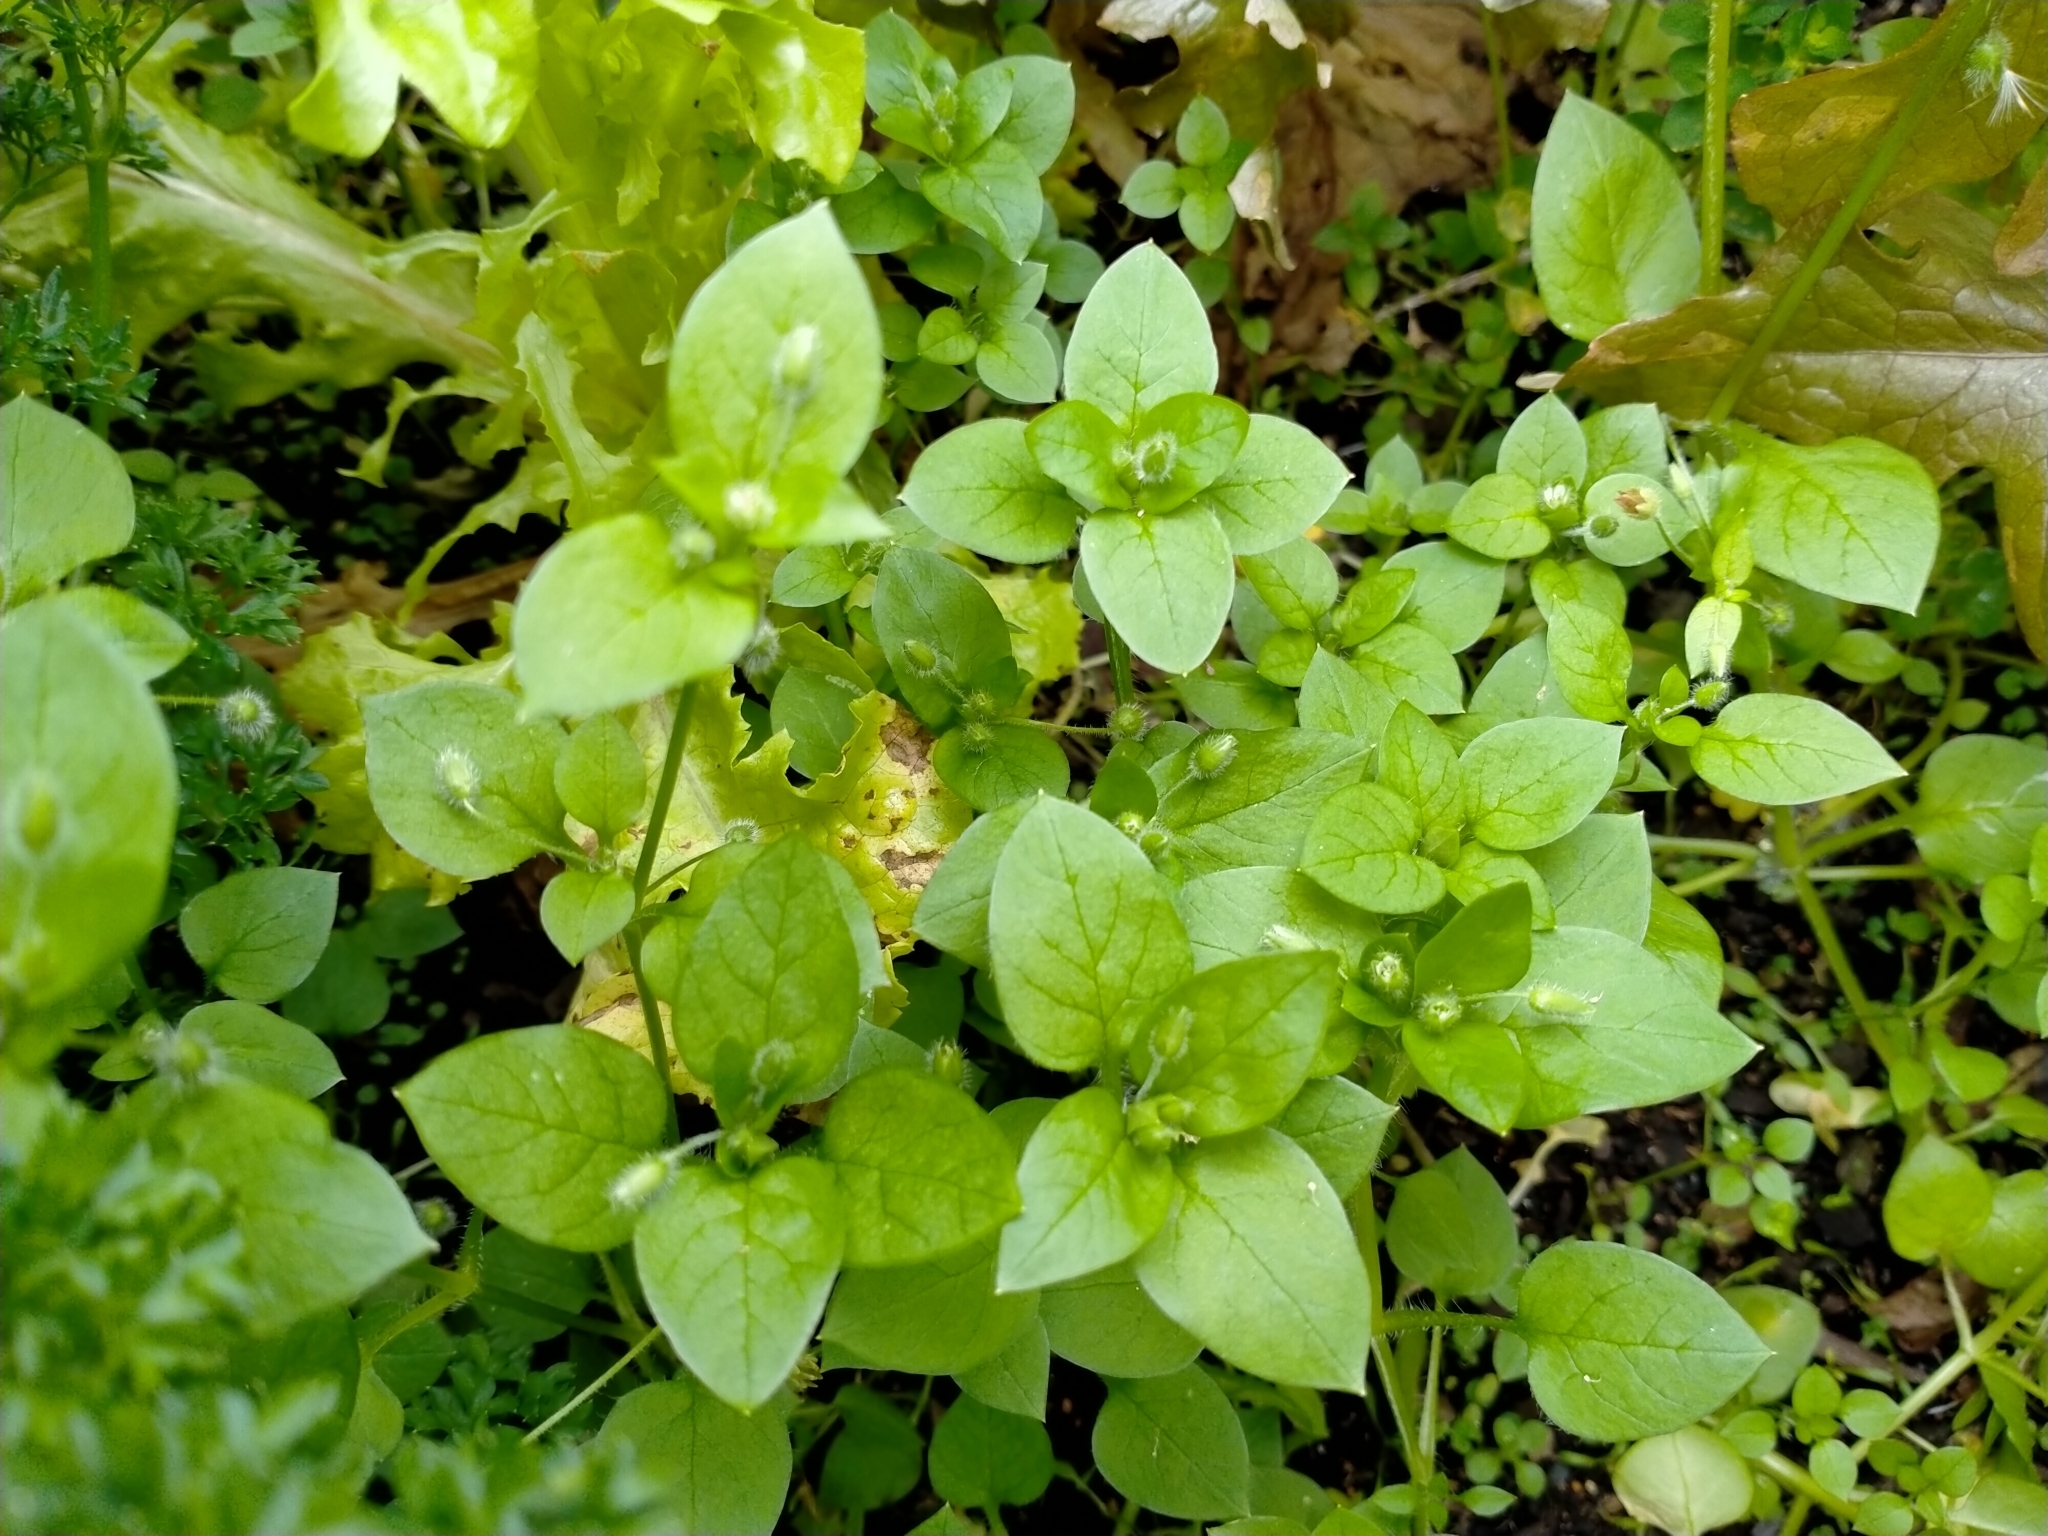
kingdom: Plantae
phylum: Tracheophyta
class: Magnoliopsida
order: Caryophyllales
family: Caryophyllaceae
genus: Stellaria
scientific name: Stellaria media
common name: Common chickweed
